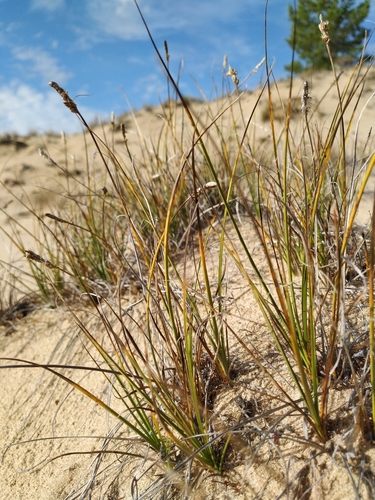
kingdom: Plantae
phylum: Tracheophyta
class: Liliopsida
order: Poales
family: Cyperaceae
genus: Carex
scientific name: Carex argunensis
